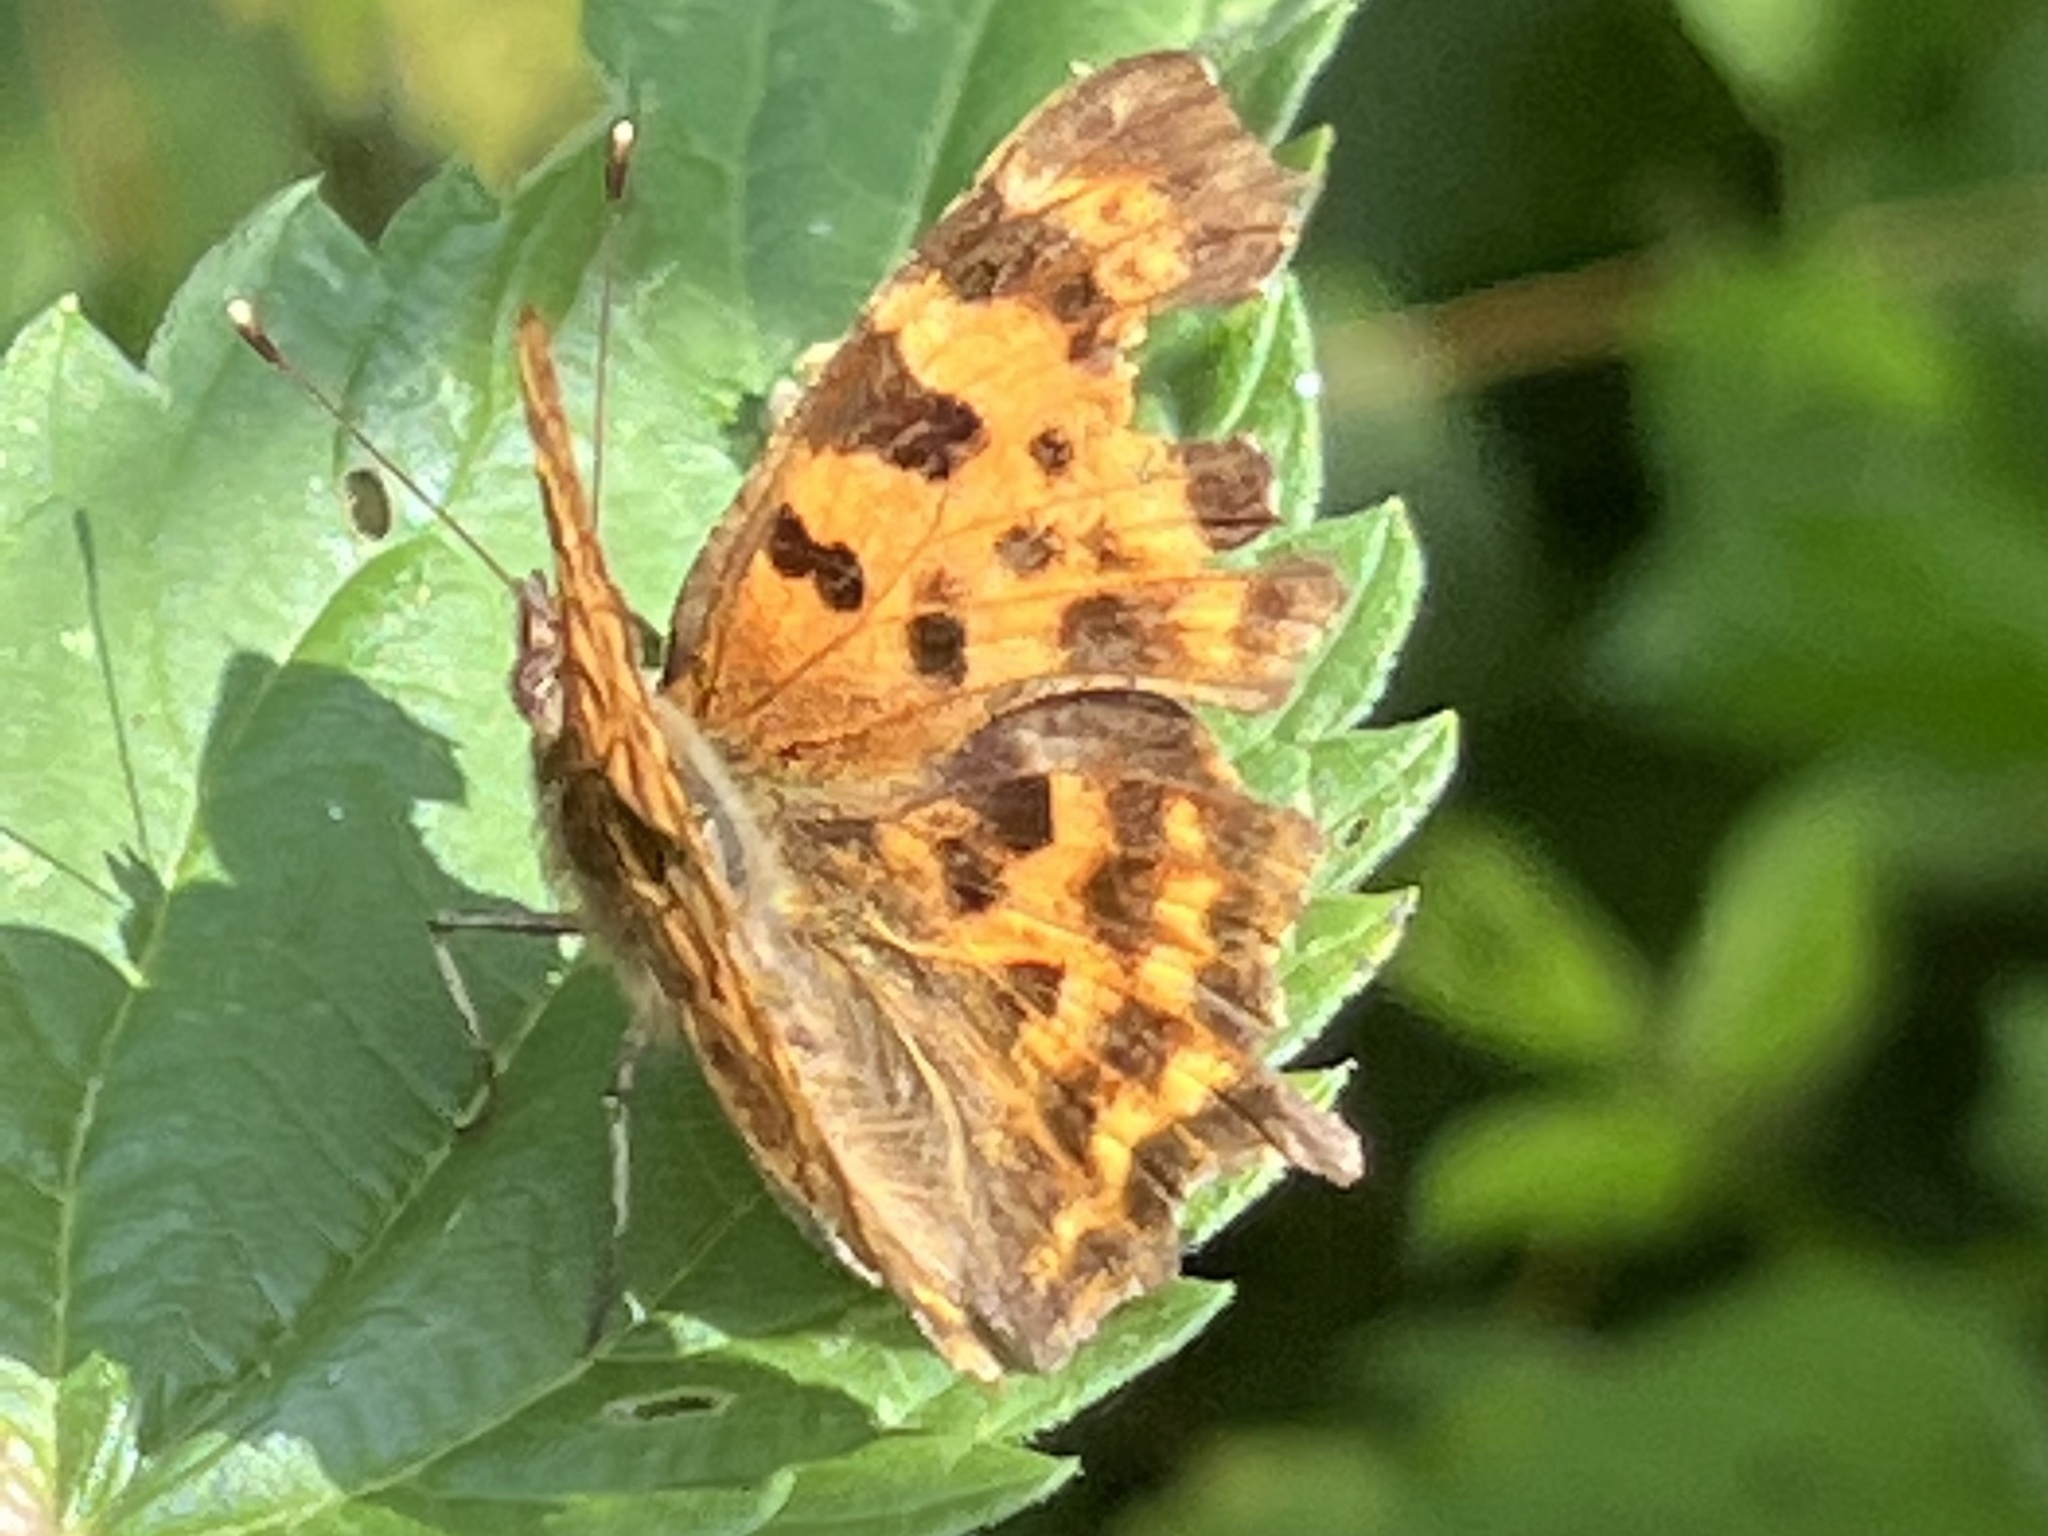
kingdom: Animalia
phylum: Arthropoda
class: Insecta
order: Lepidoptera
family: Nymphalidae
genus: Polygonia
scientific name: Polygonia c-album
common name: Comma
